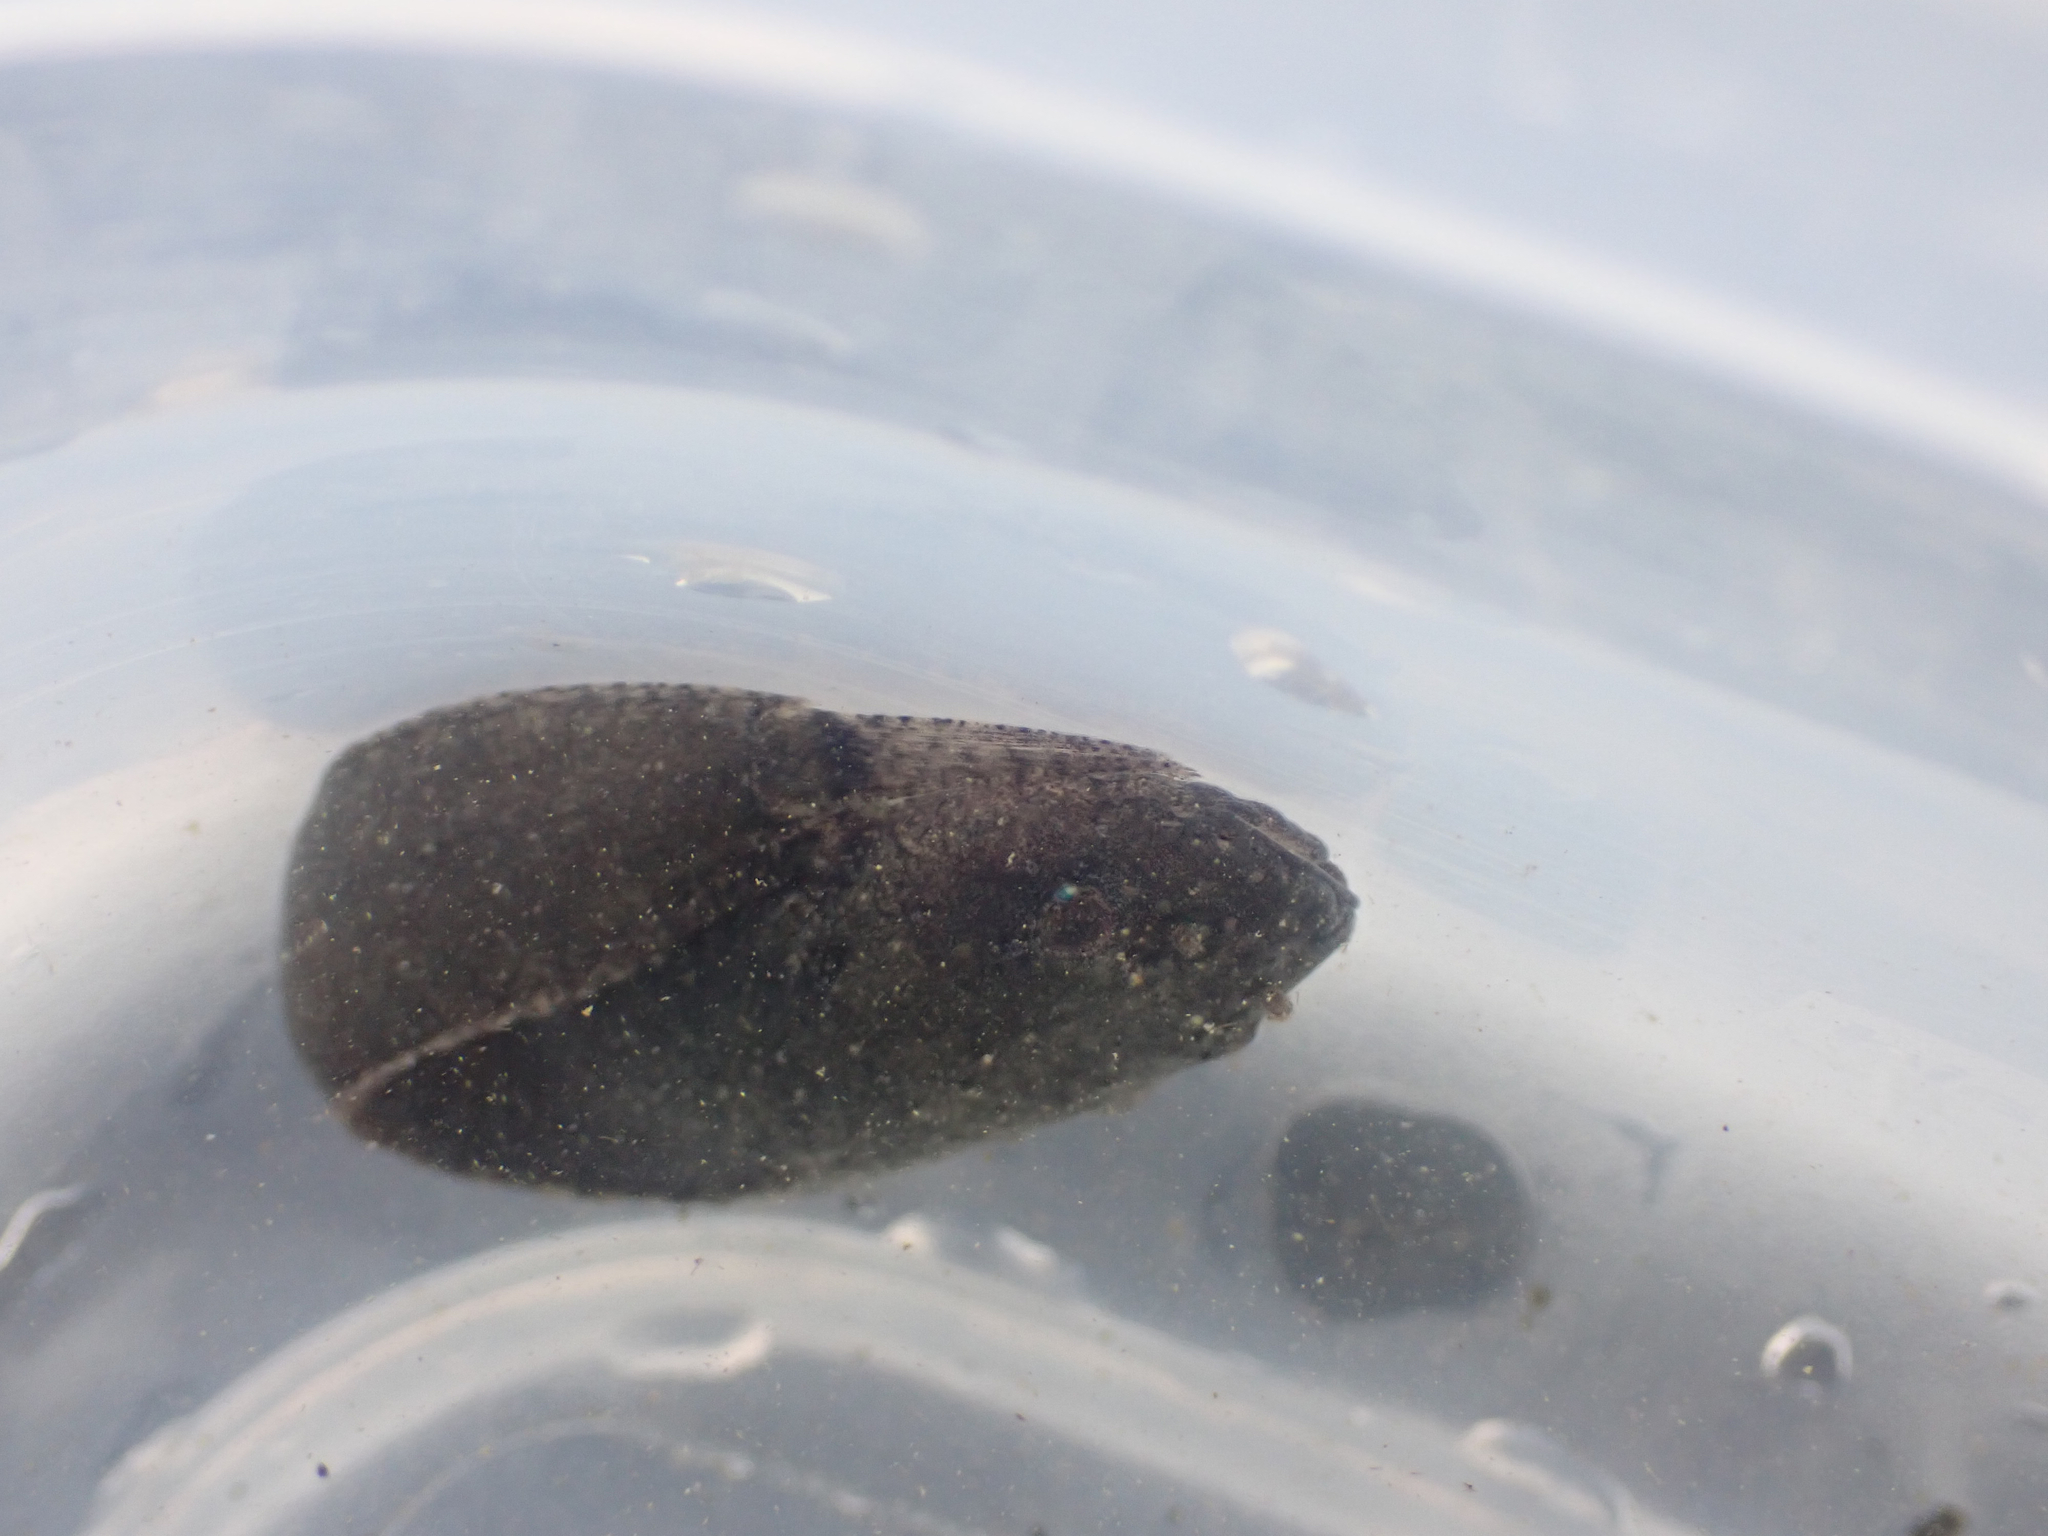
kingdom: Animalia
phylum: Chordata
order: Scorpaeniformes
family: Liparidae
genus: Liparis
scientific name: Liparis florae
